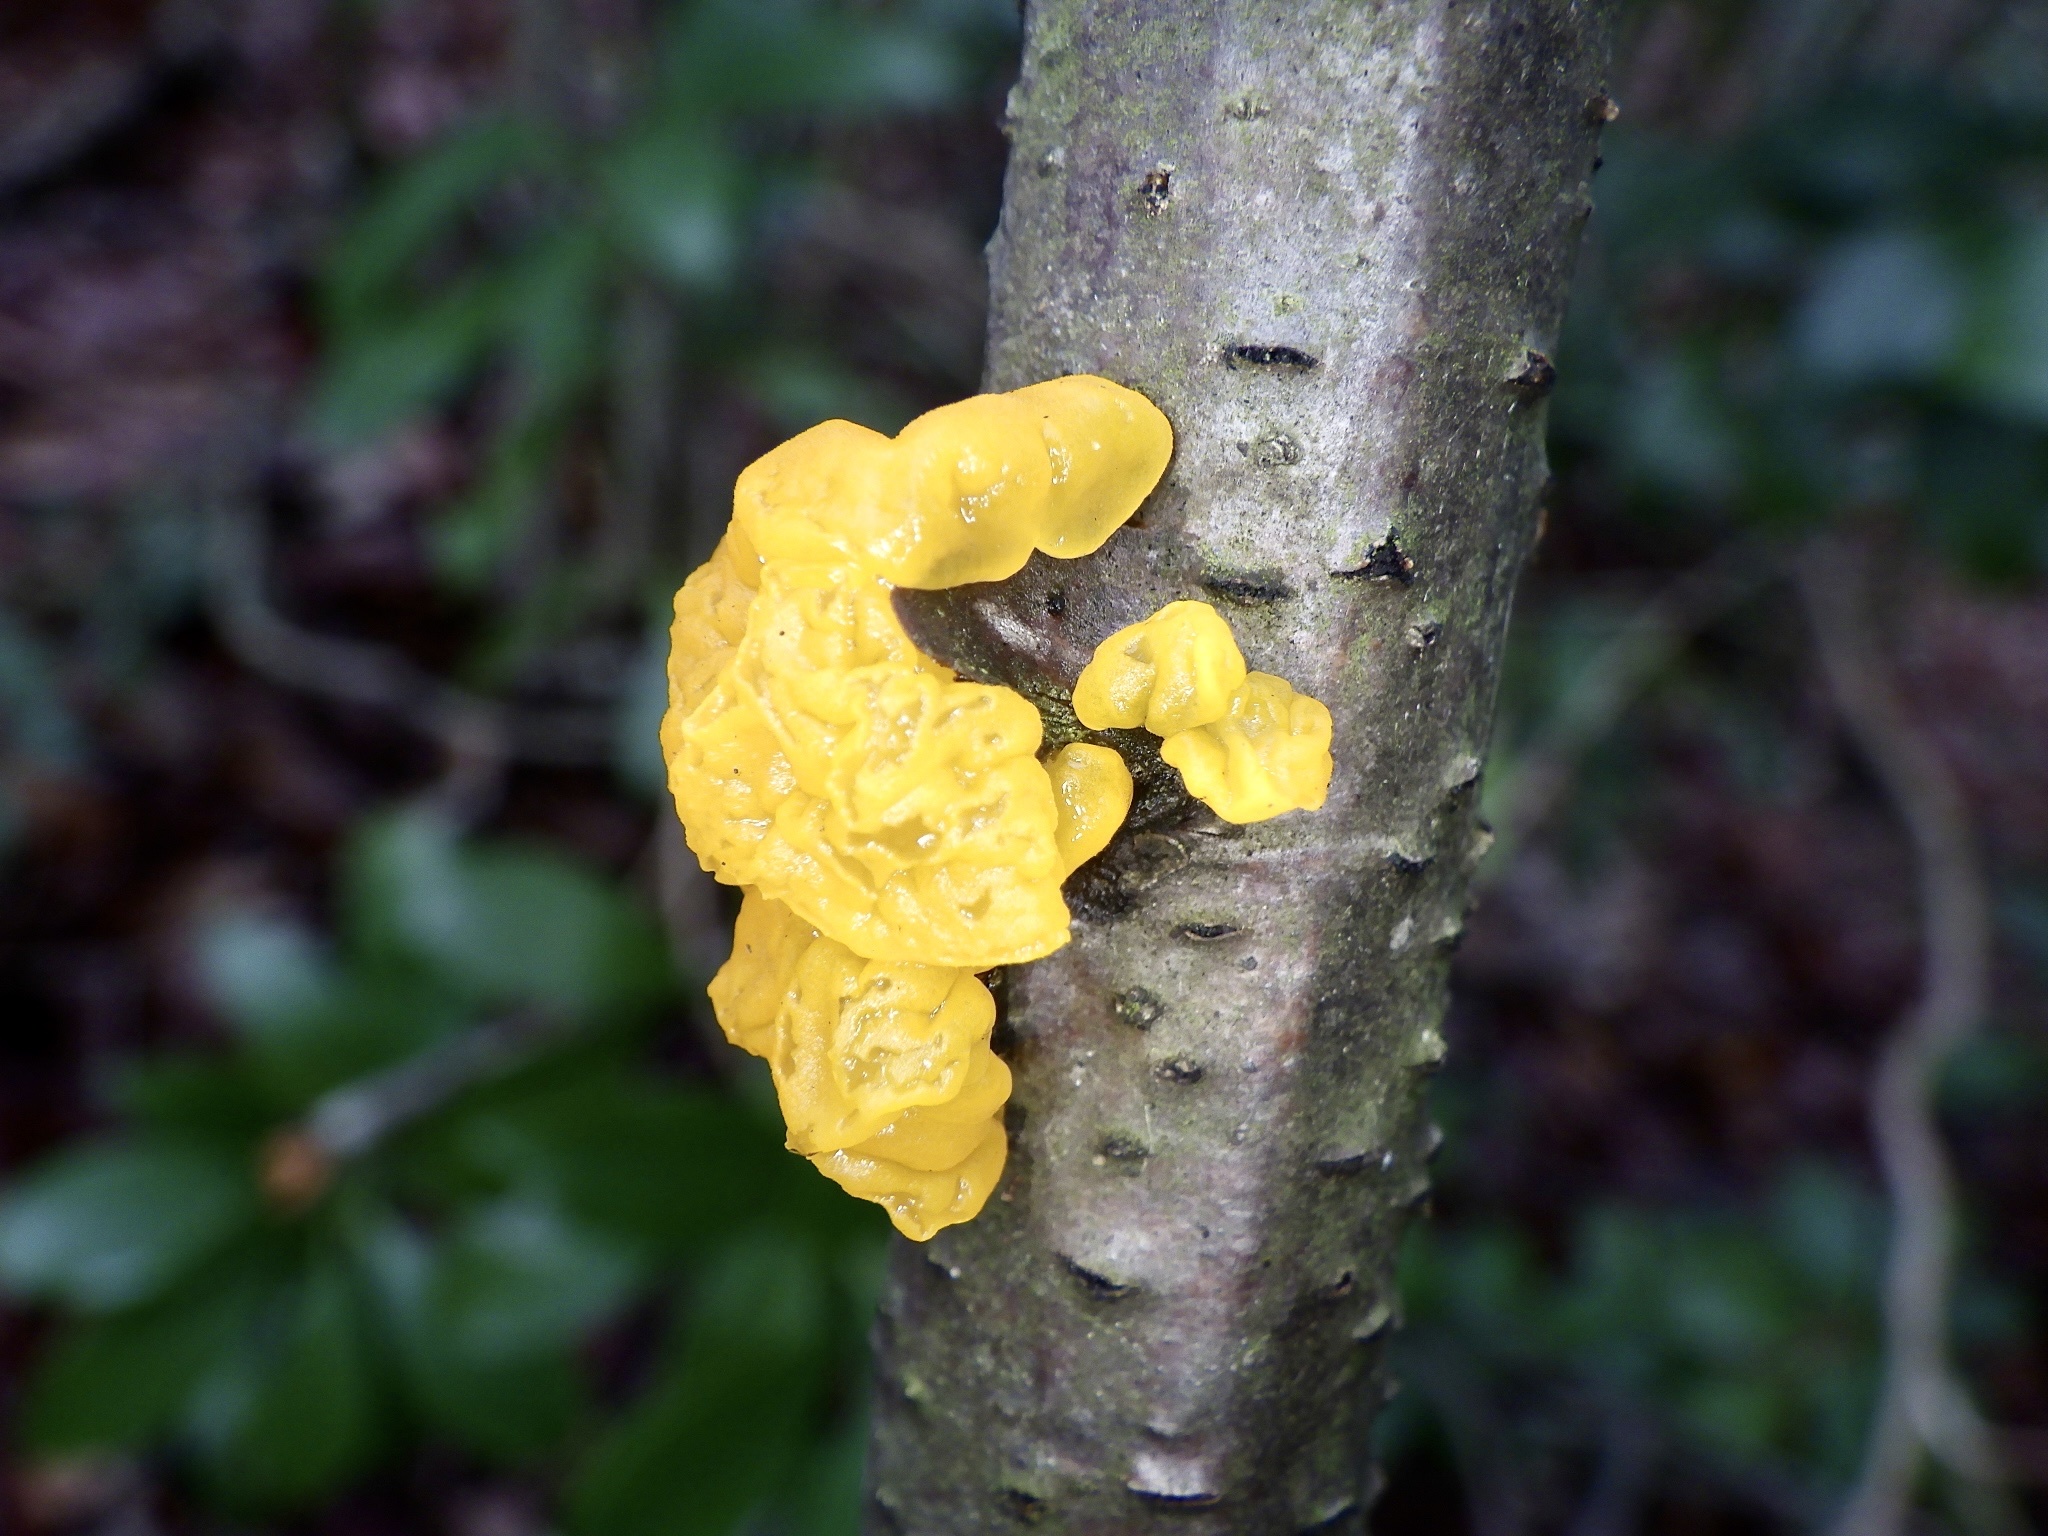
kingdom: Fungi
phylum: Basidiomycota
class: Tremellomycetes
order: Tremellales
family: Tremellaceae
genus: Tremella
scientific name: Tremella mesenterica
